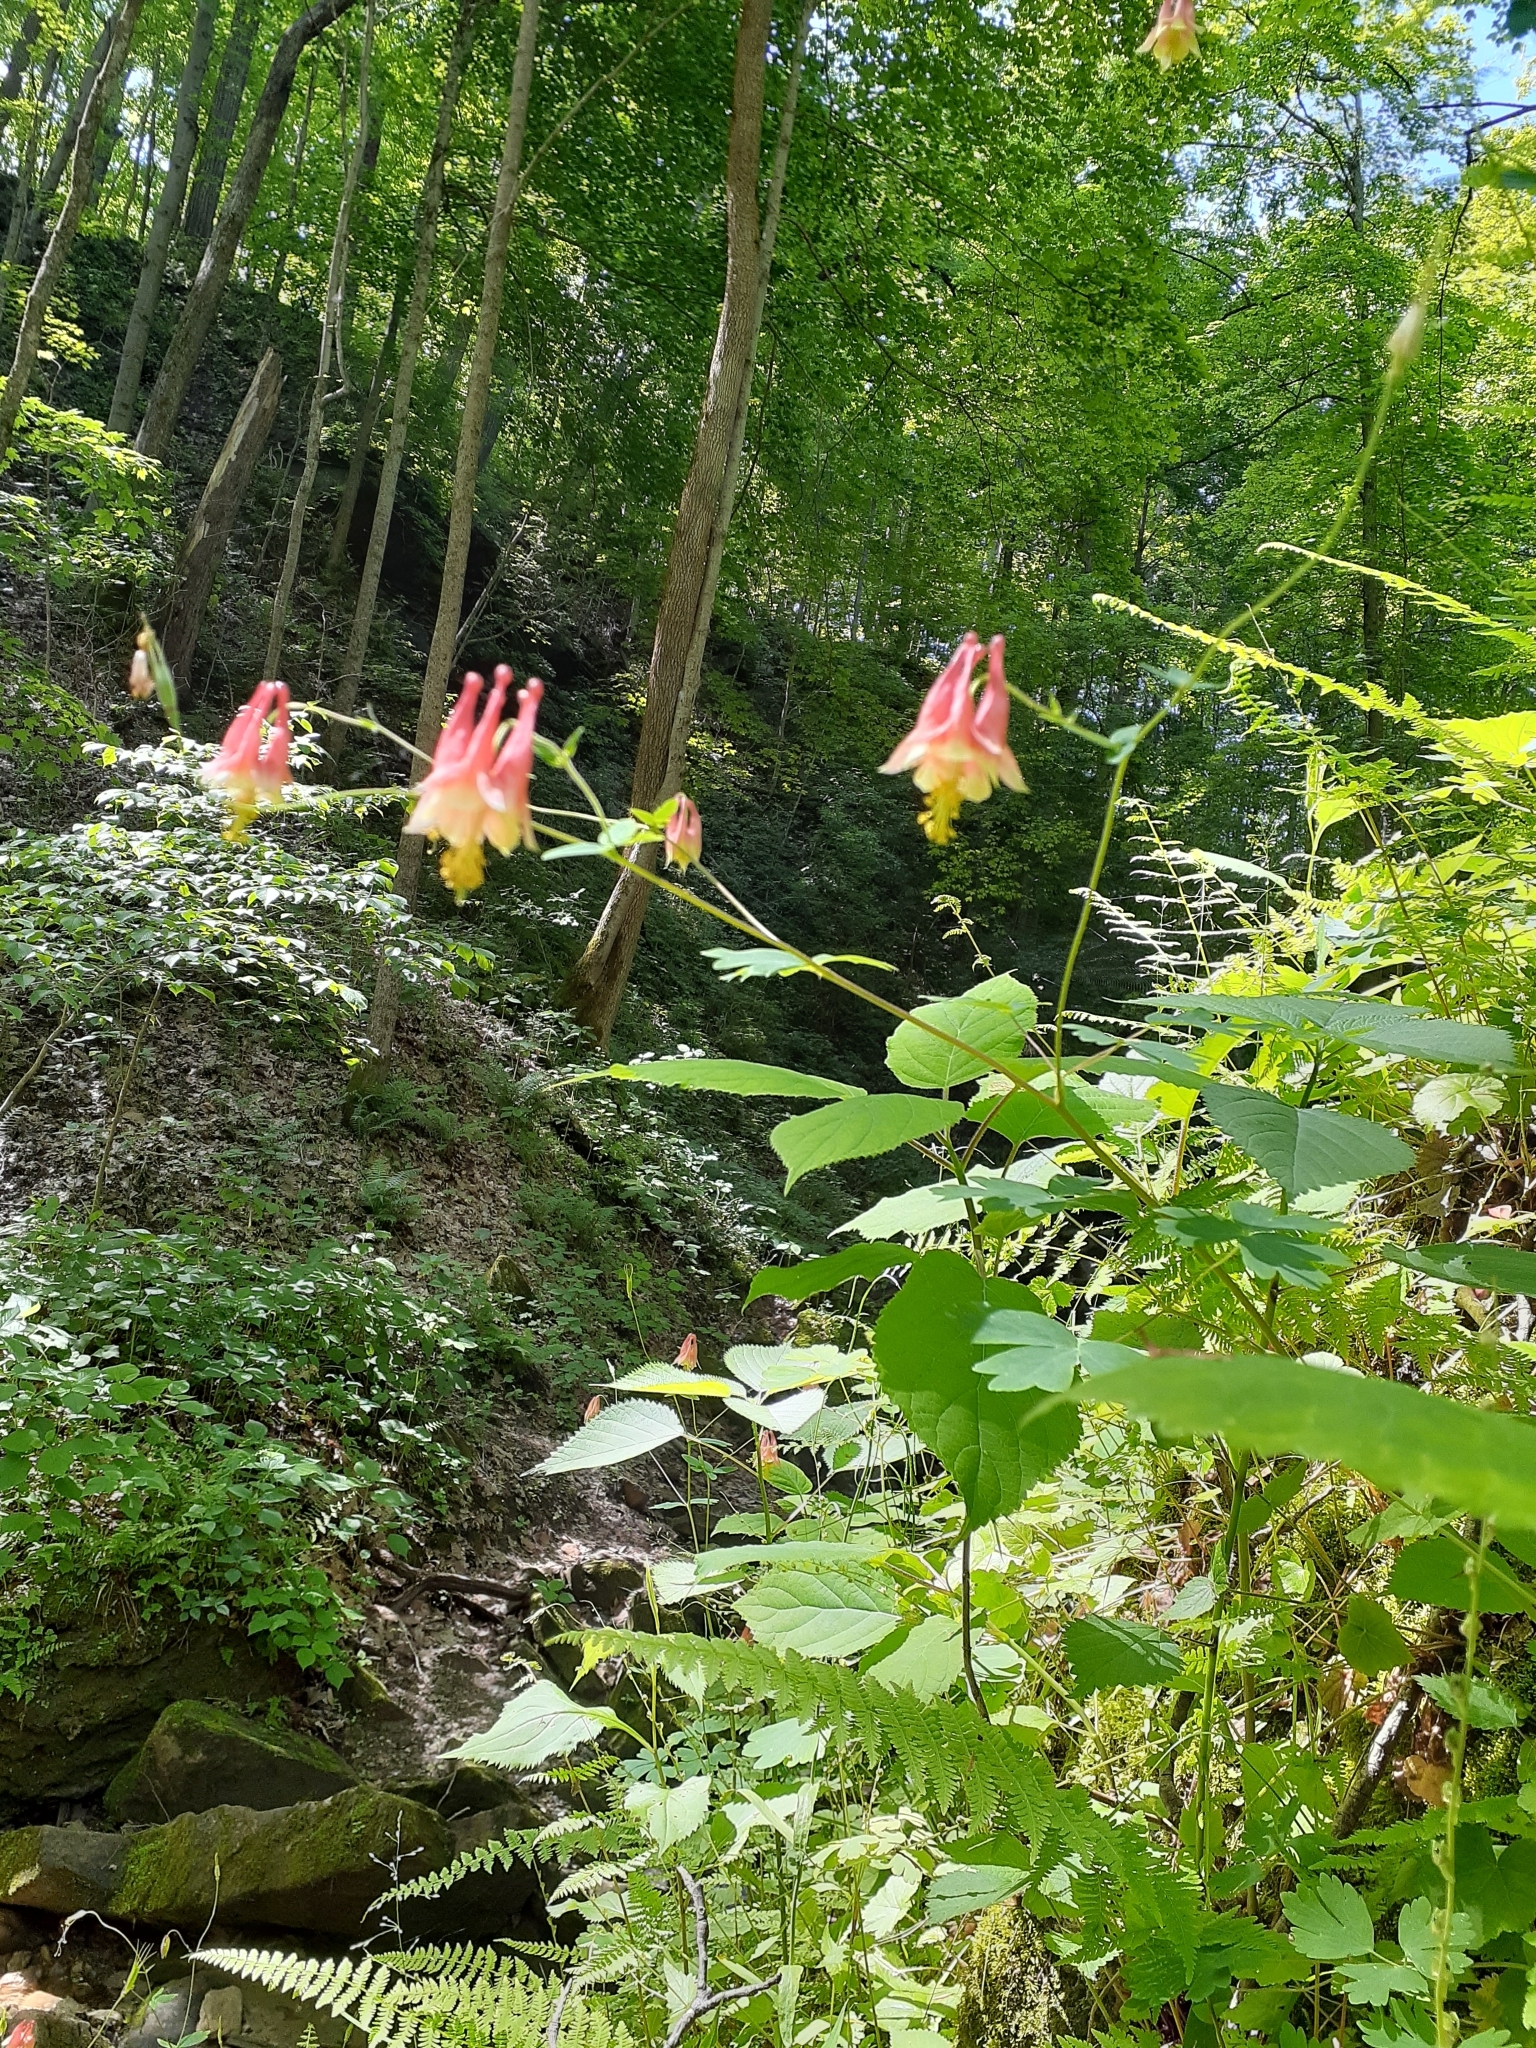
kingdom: Plantae
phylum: Tracheophyta
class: Magnoliopsida
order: Ranunculales
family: Ranunculaceae
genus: Aquilegia
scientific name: Aquilegia canadensis
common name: American columbine
